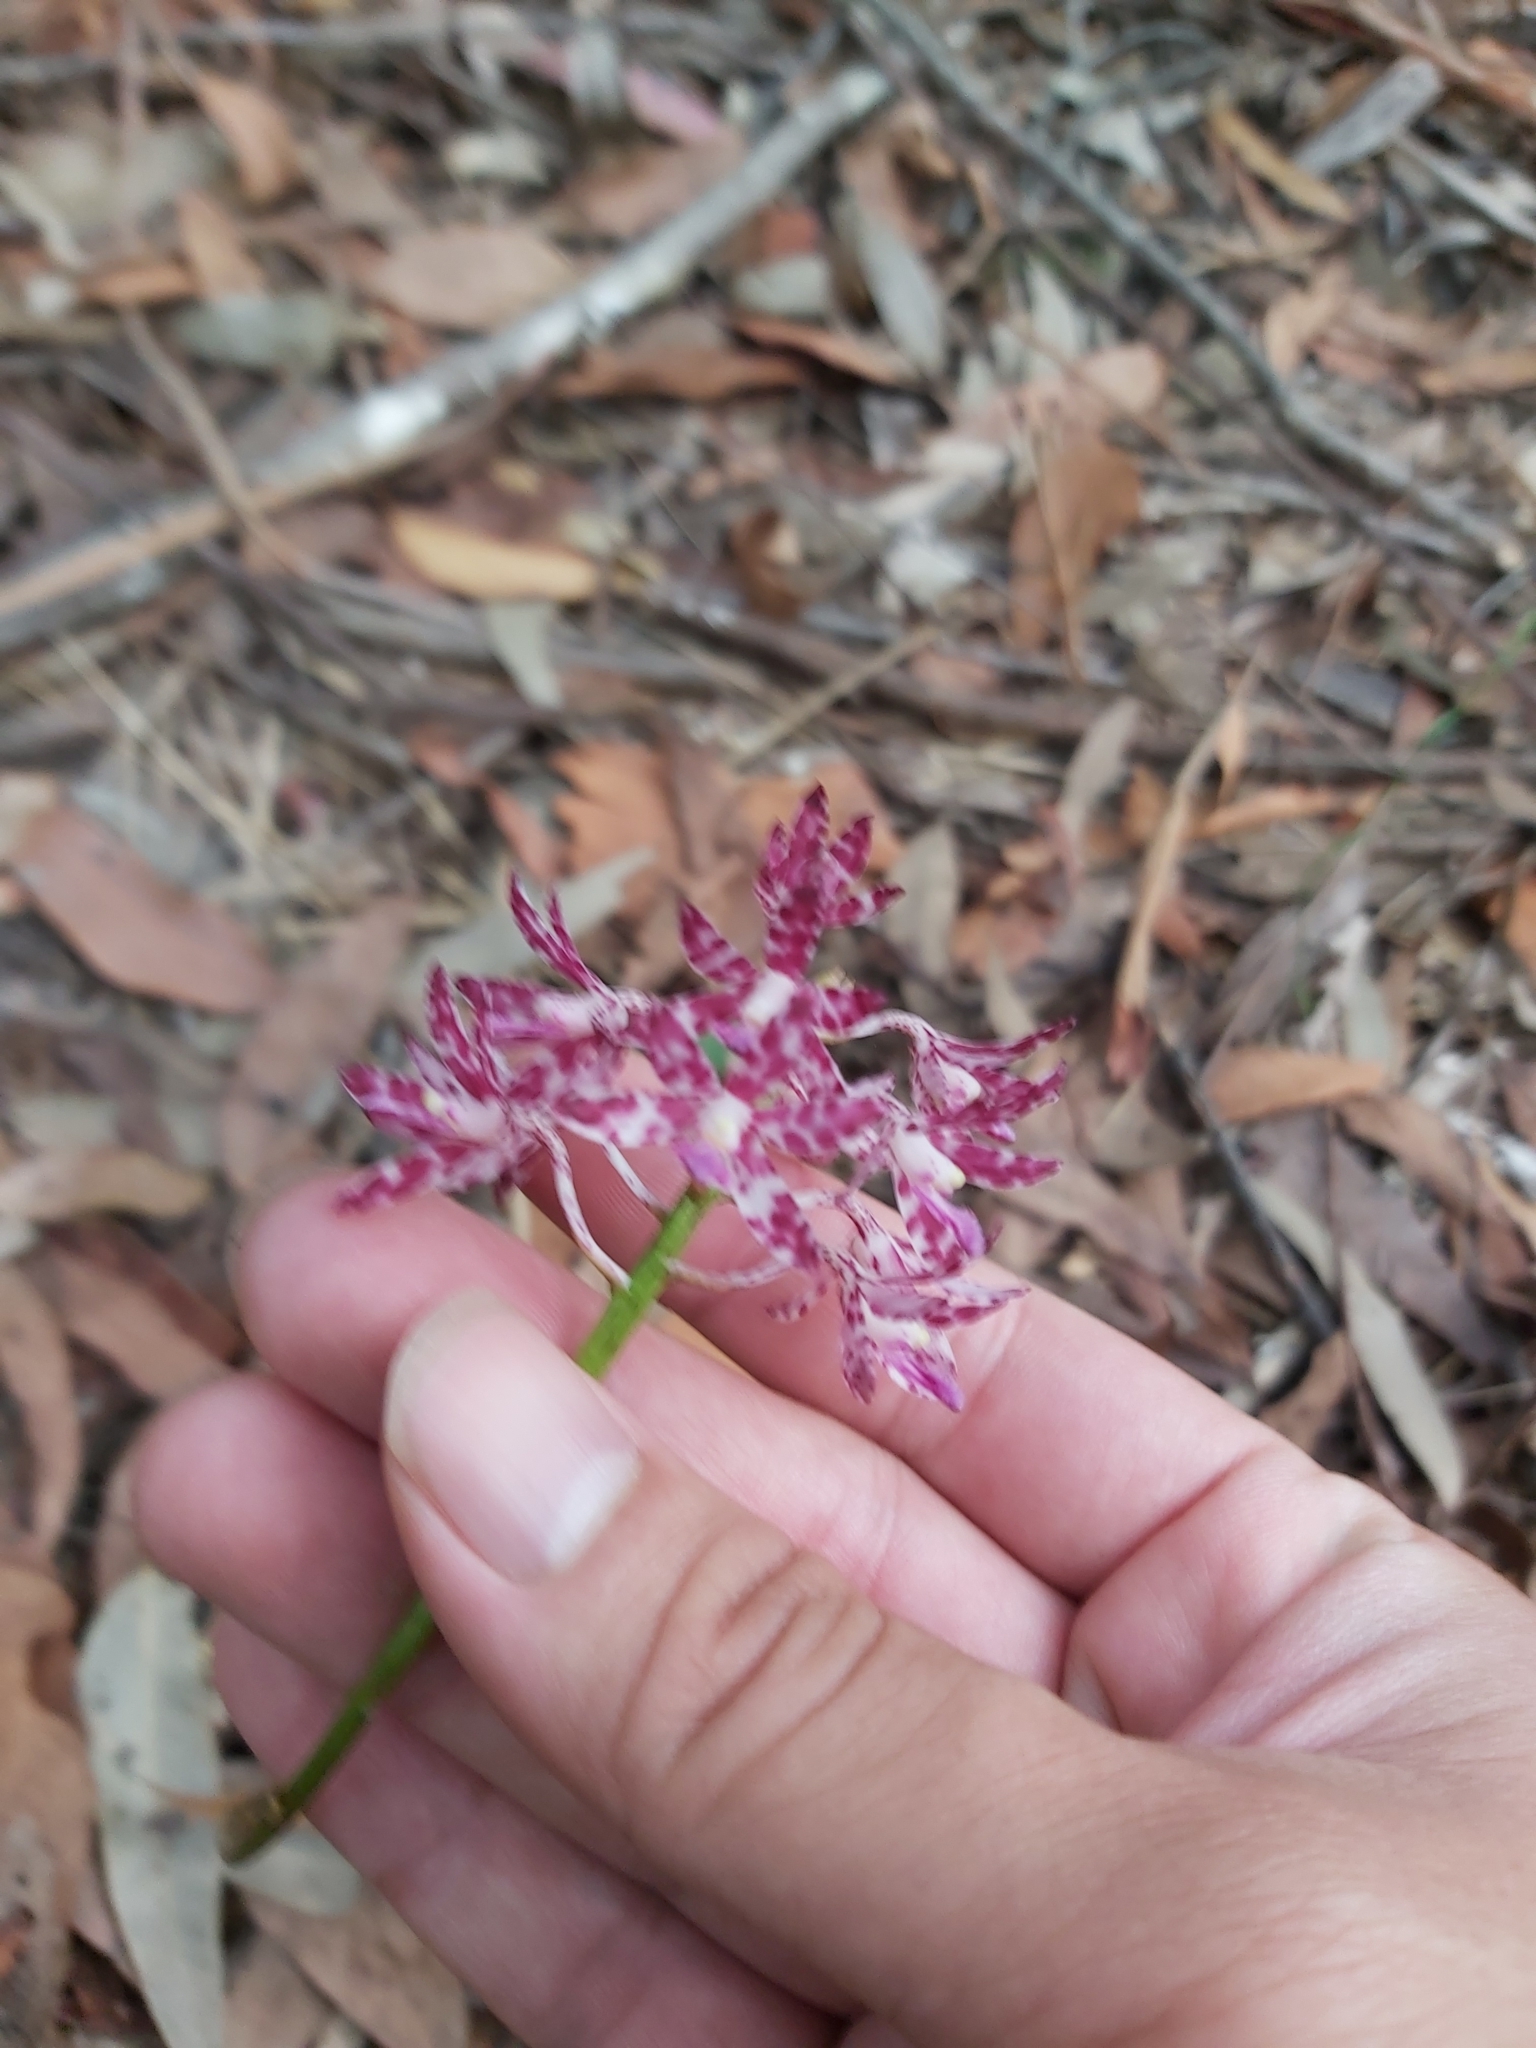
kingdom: Plantae
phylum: Tracheophyta
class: Liliopsida
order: Asparagales
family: Orchidaceae
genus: Dipodium
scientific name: Dipodium variegatum
